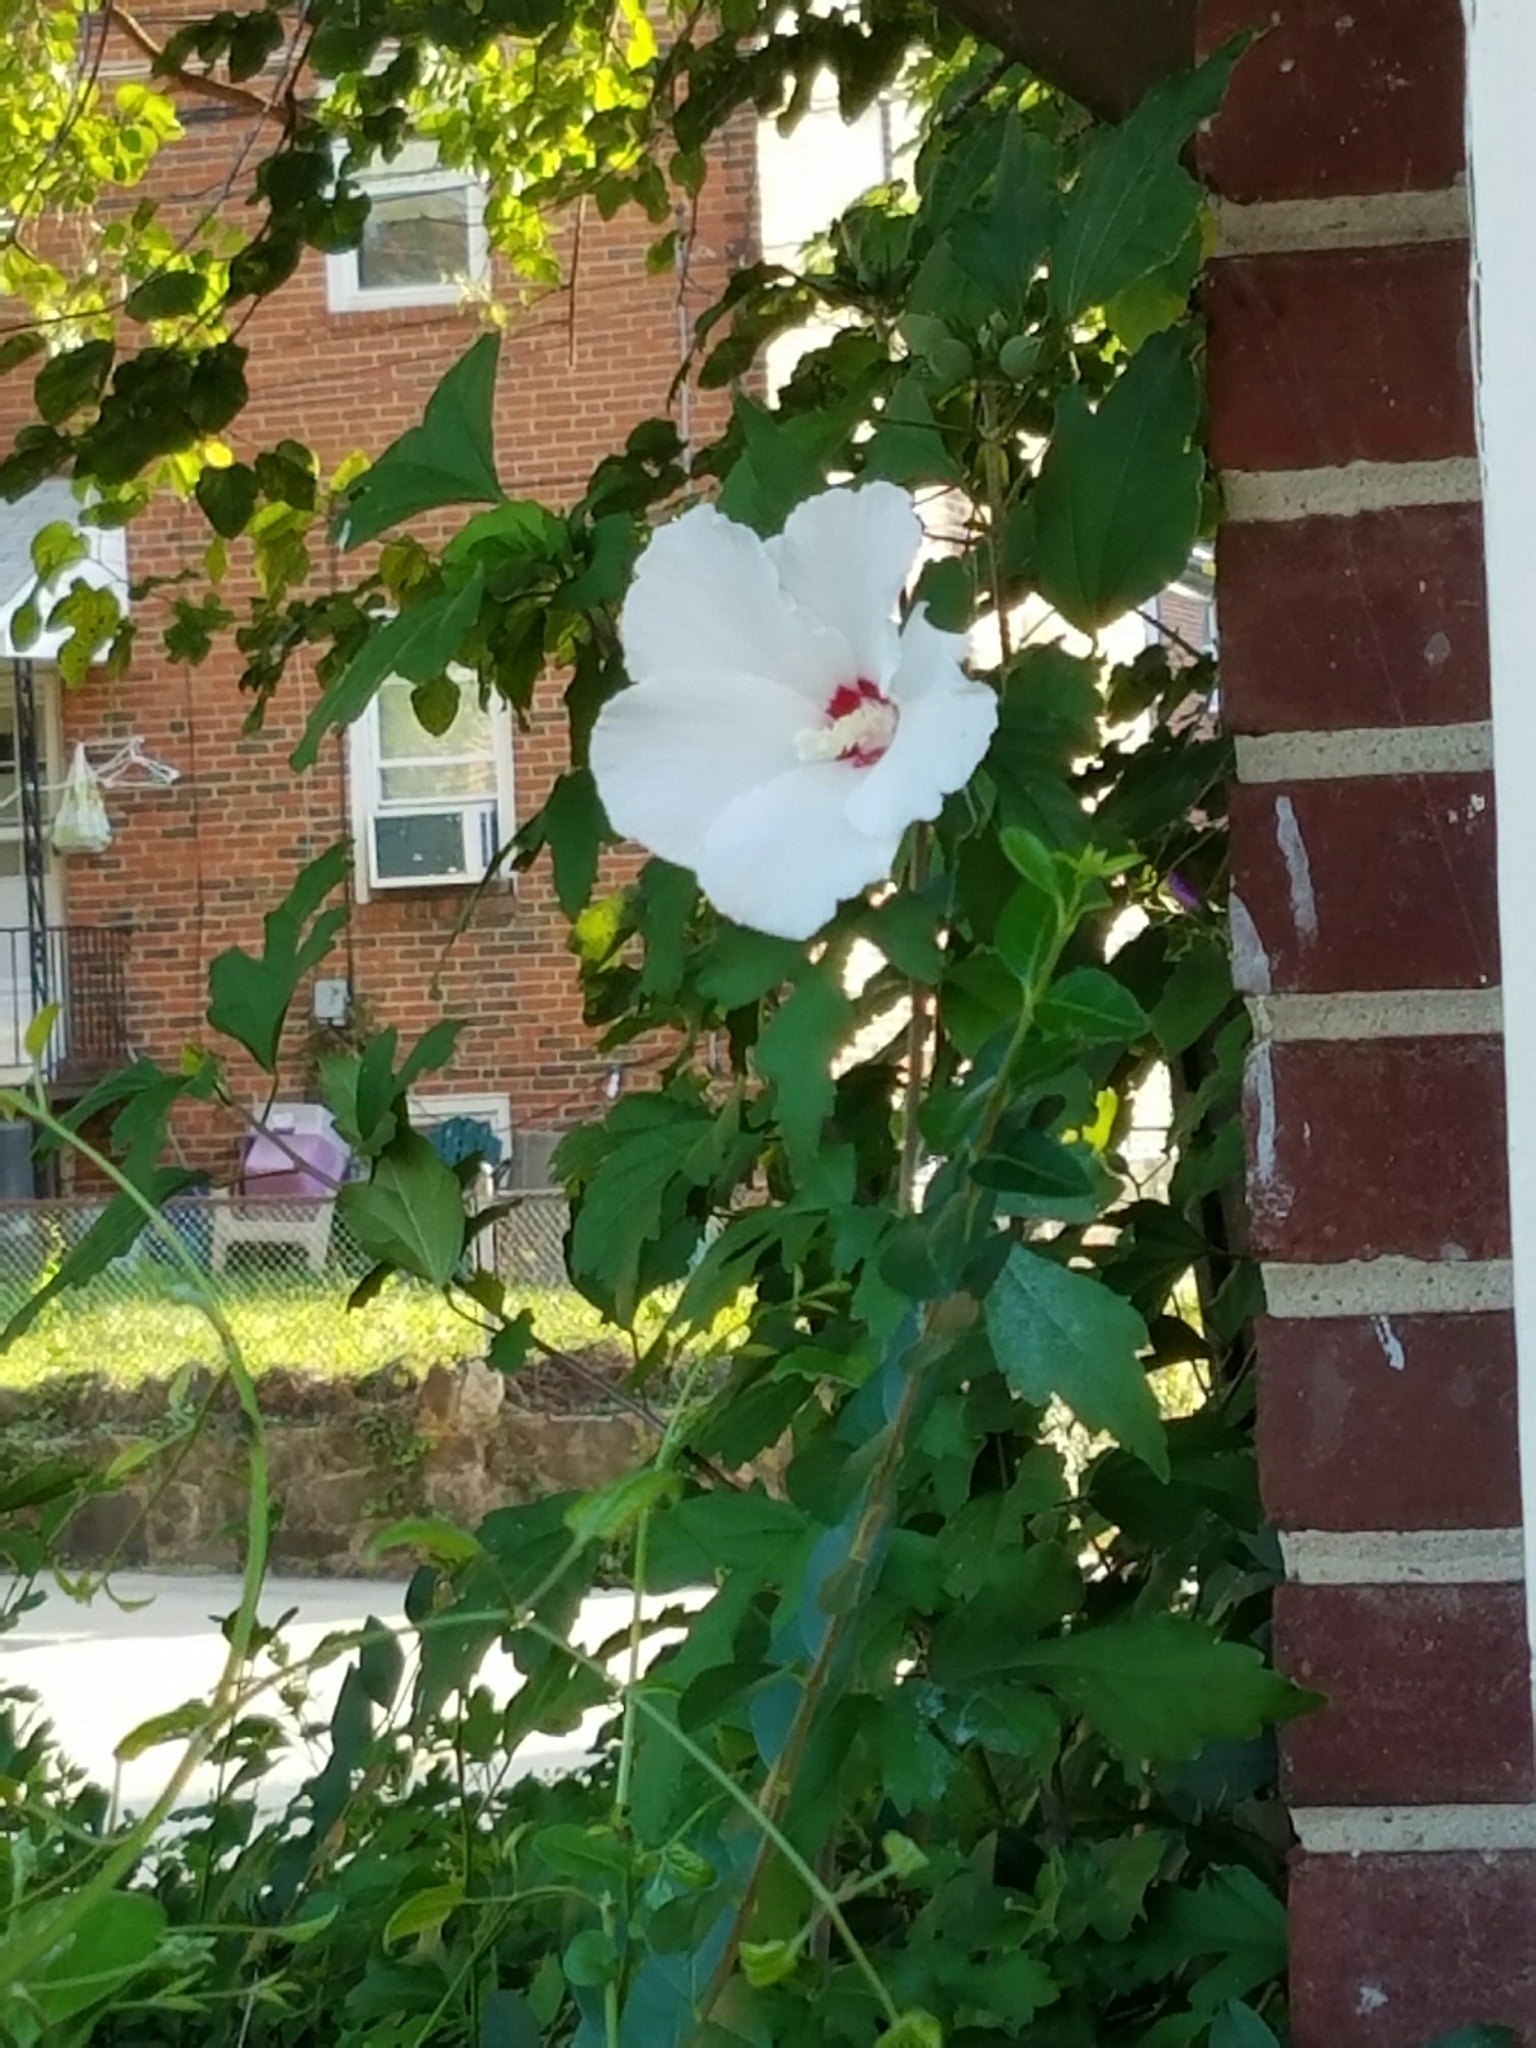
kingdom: Plantae
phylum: Tracheophyta
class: Magnoliopsida
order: Malvales
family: Malvaceae
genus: Hibiscus
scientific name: Hibiscus syriacus
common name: Syrian ketmia
